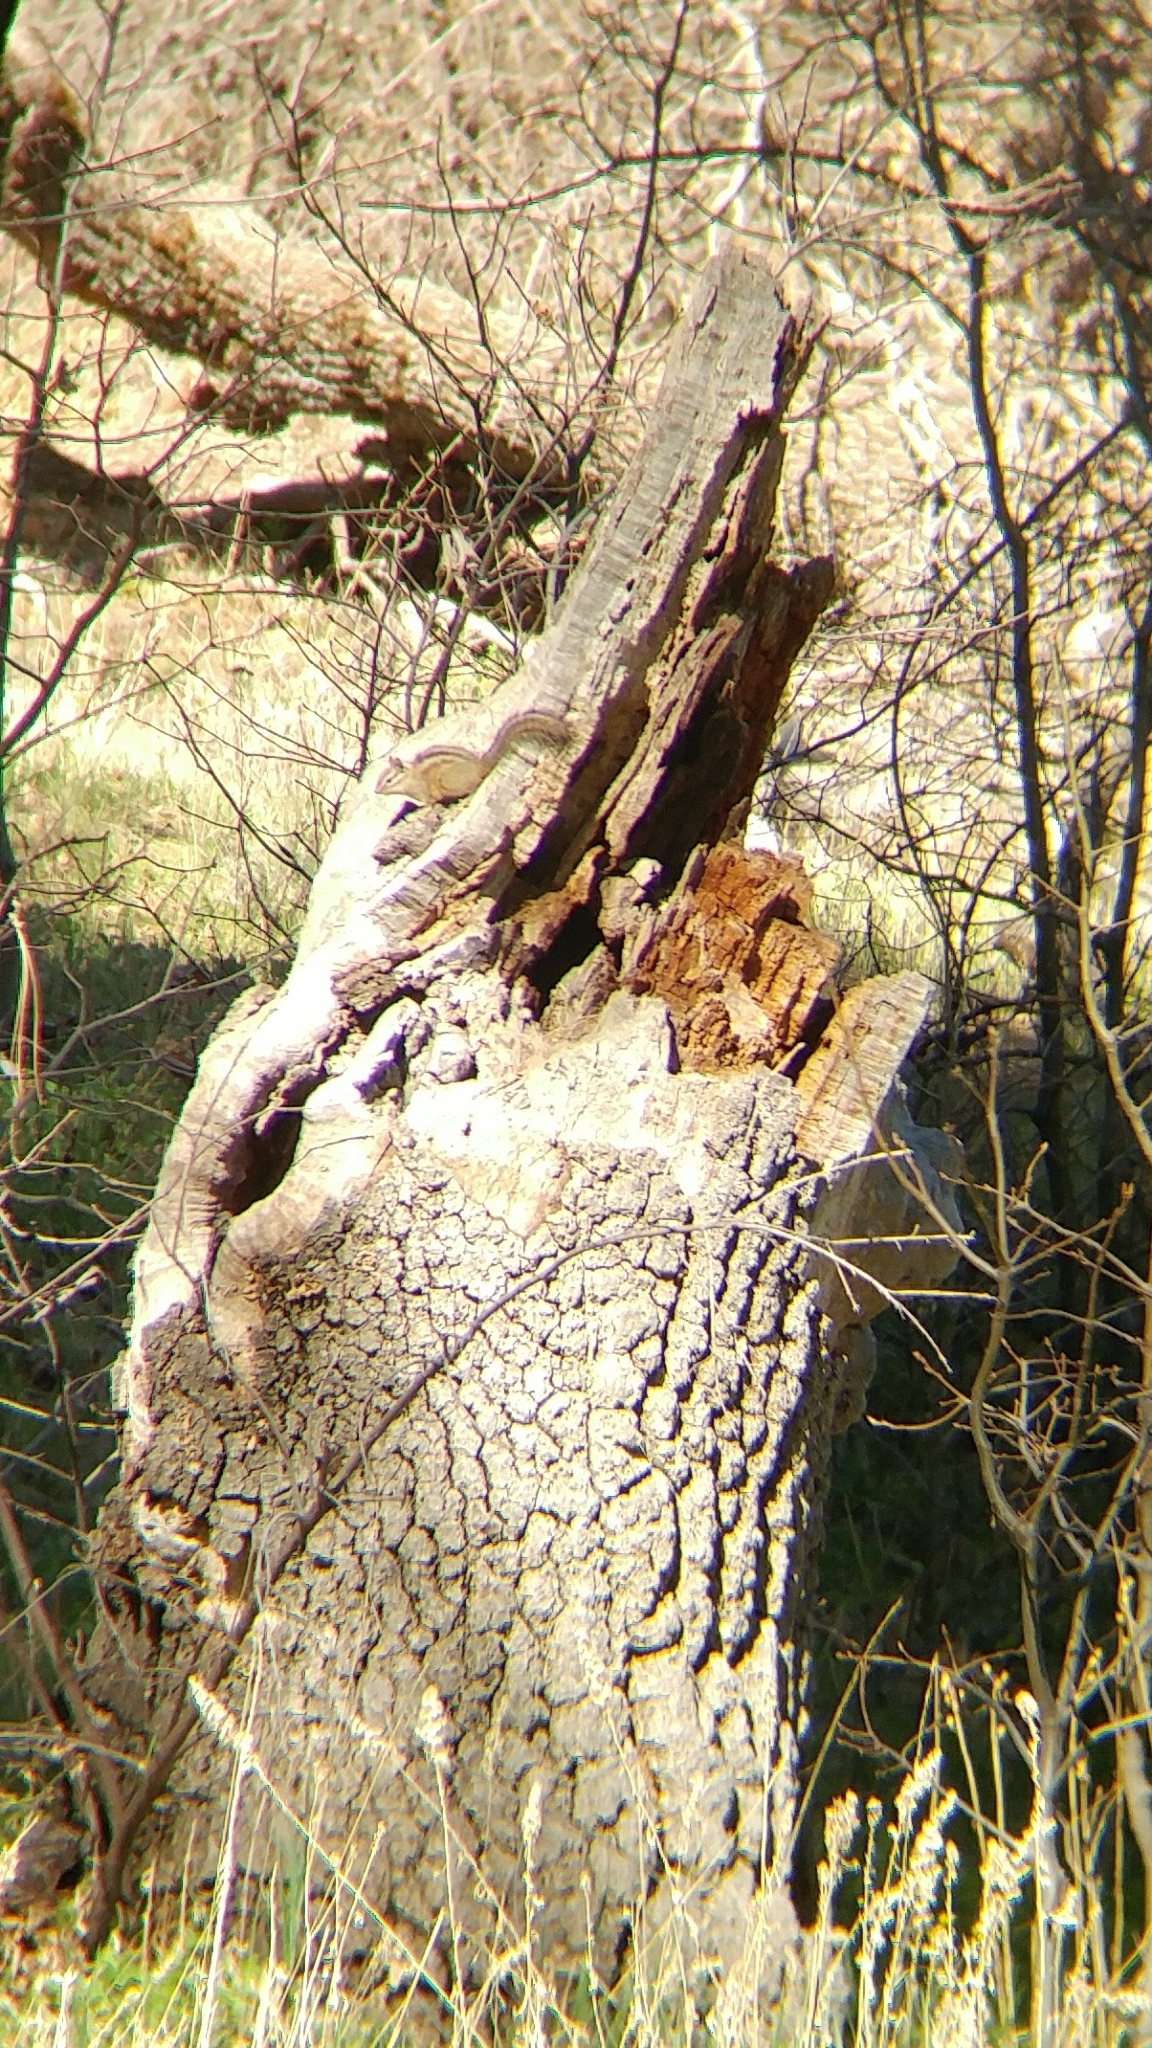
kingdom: Animalia
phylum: Chordata
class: Mammalia
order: Rodentia
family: Sciuridae
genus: Tamias
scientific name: Tamias merriami
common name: Merriam's chipmunk
